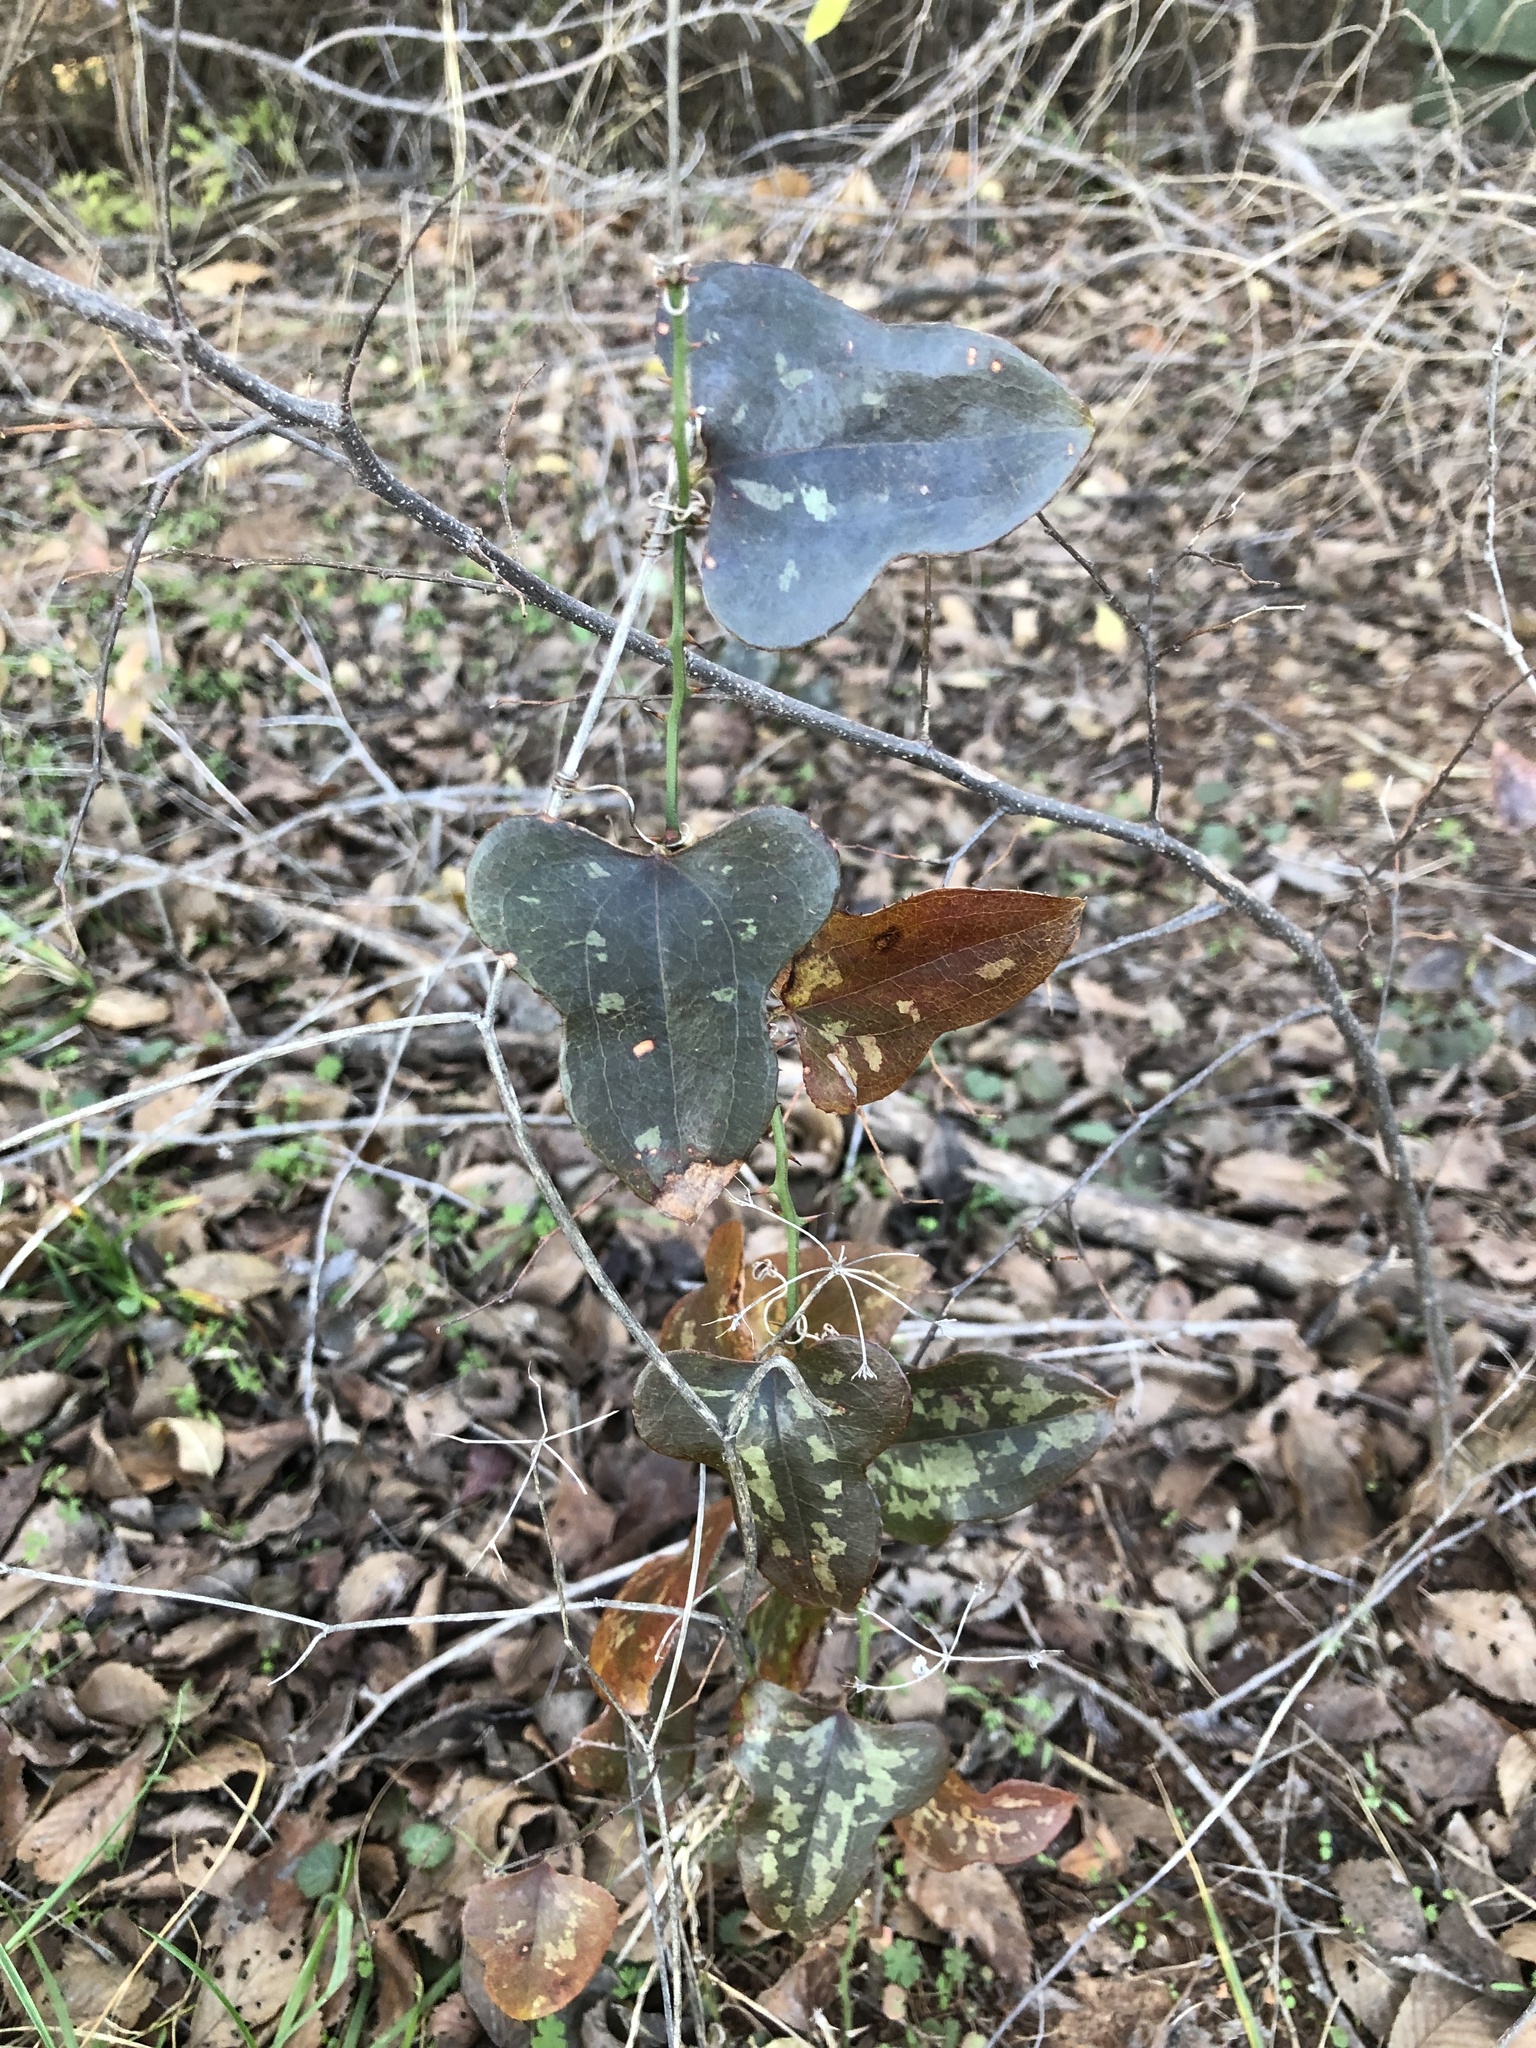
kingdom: Plantae
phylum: Tracheophyta
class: Liliopsida
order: Liliales
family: Smilacaceae
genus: Smilax
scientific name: Smilax bona-nox
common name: Catbrier
